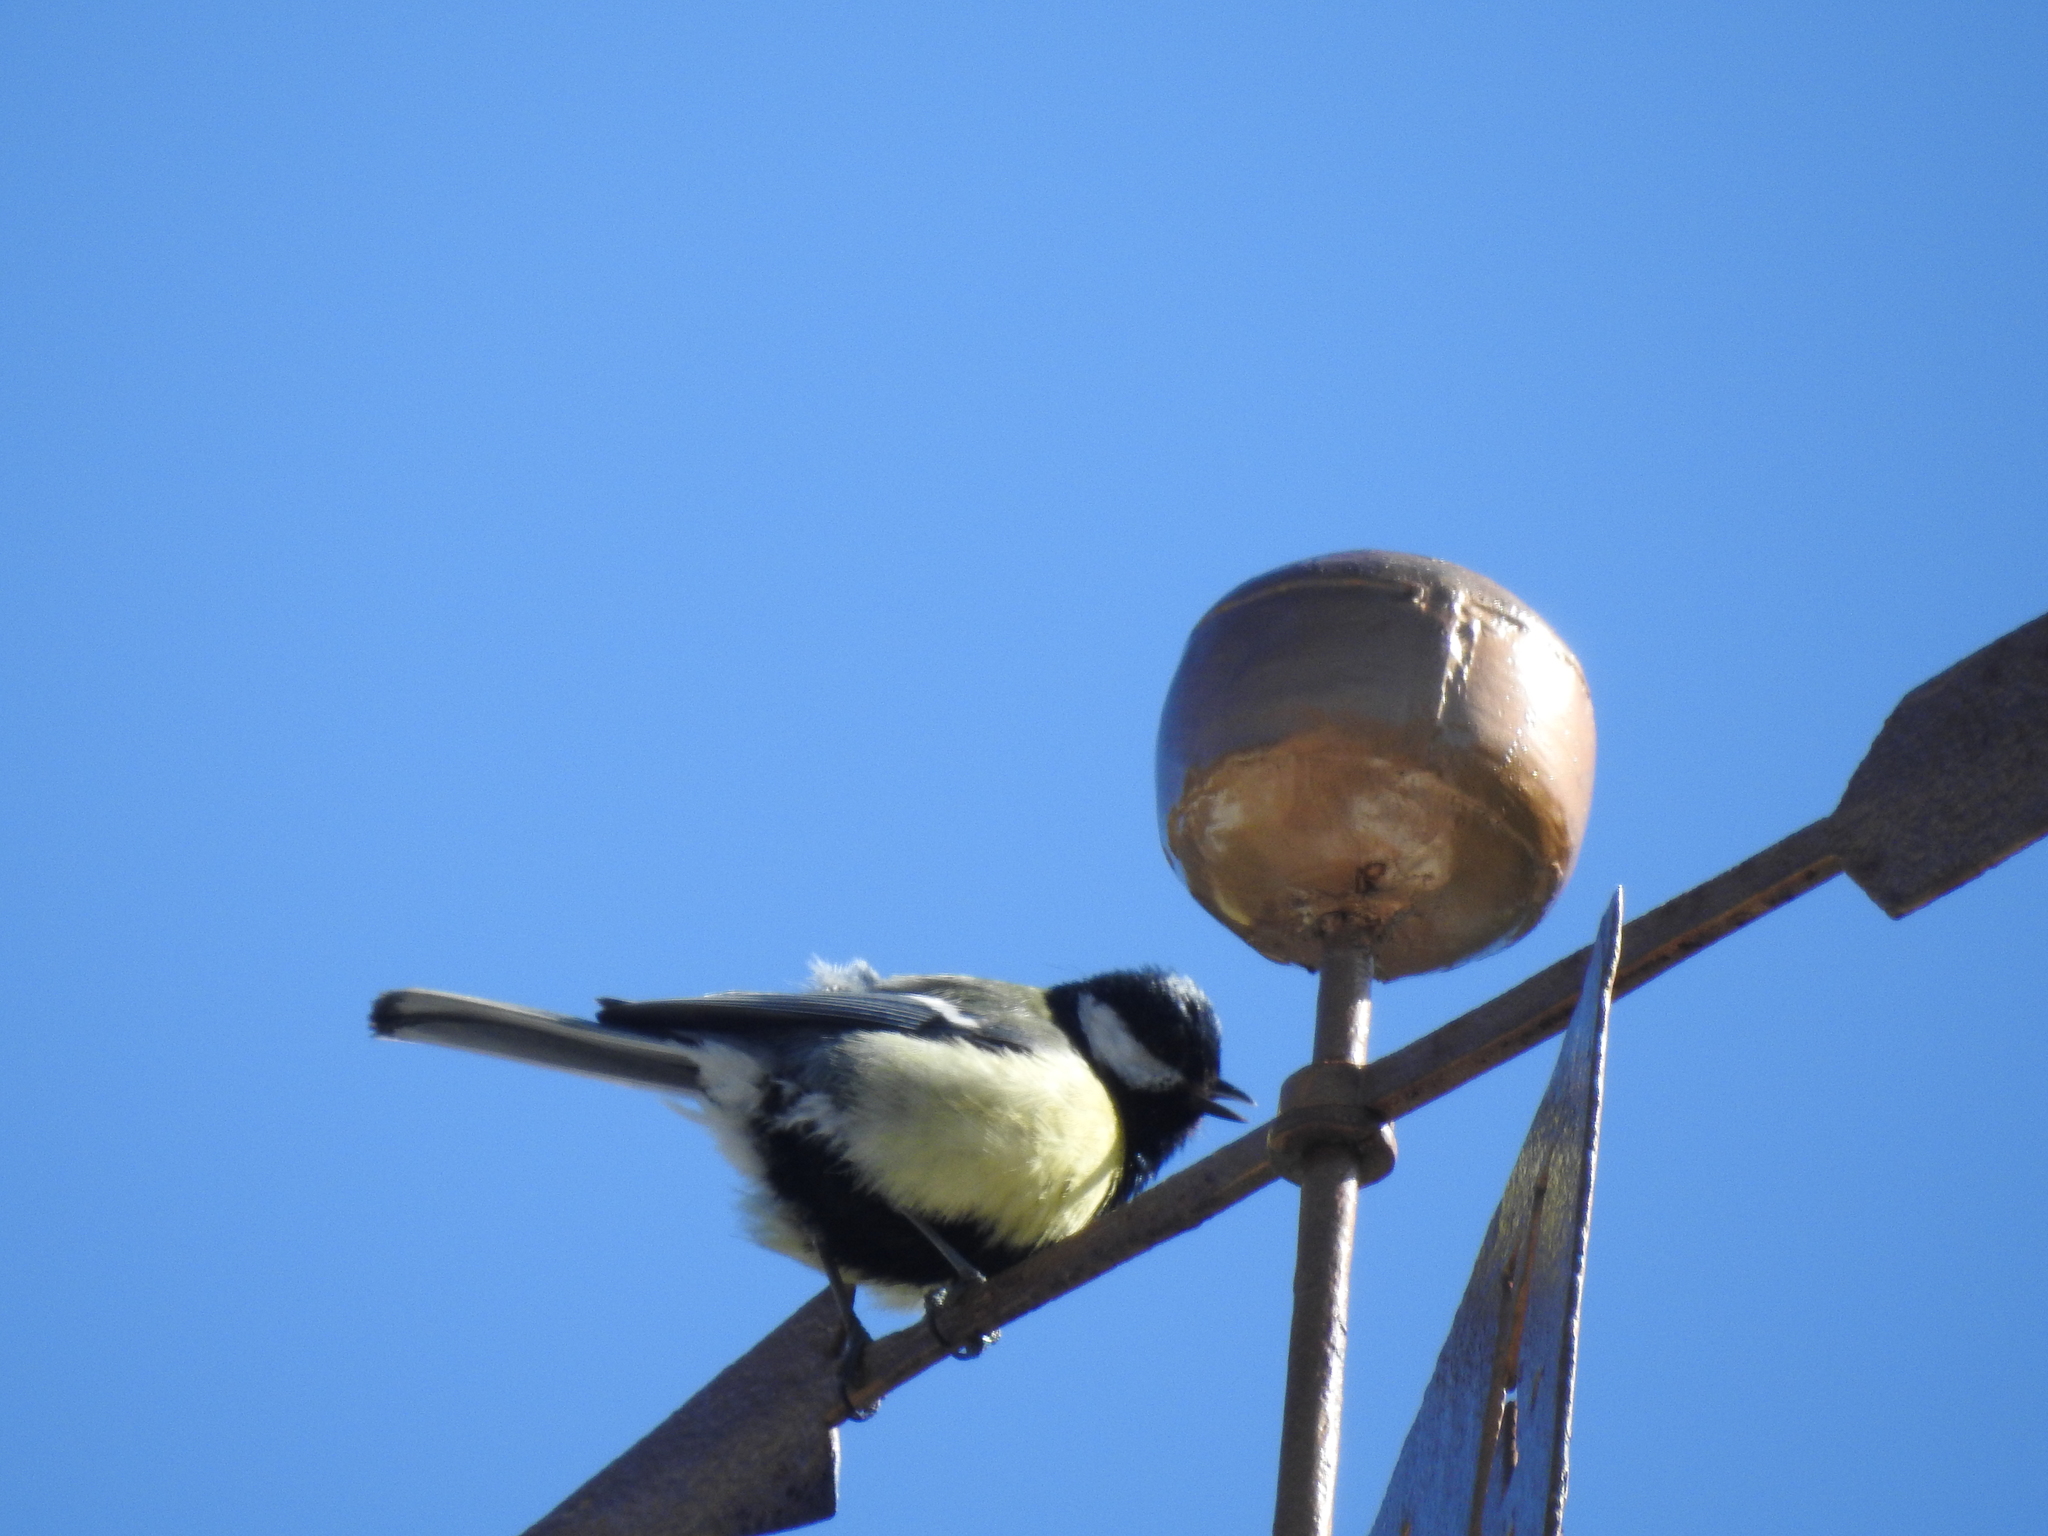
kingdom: Animalia
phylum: Chordata
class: Aves
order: Passeriformes
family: Paridae
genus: Parus
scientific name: Parus major
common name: Great tit
